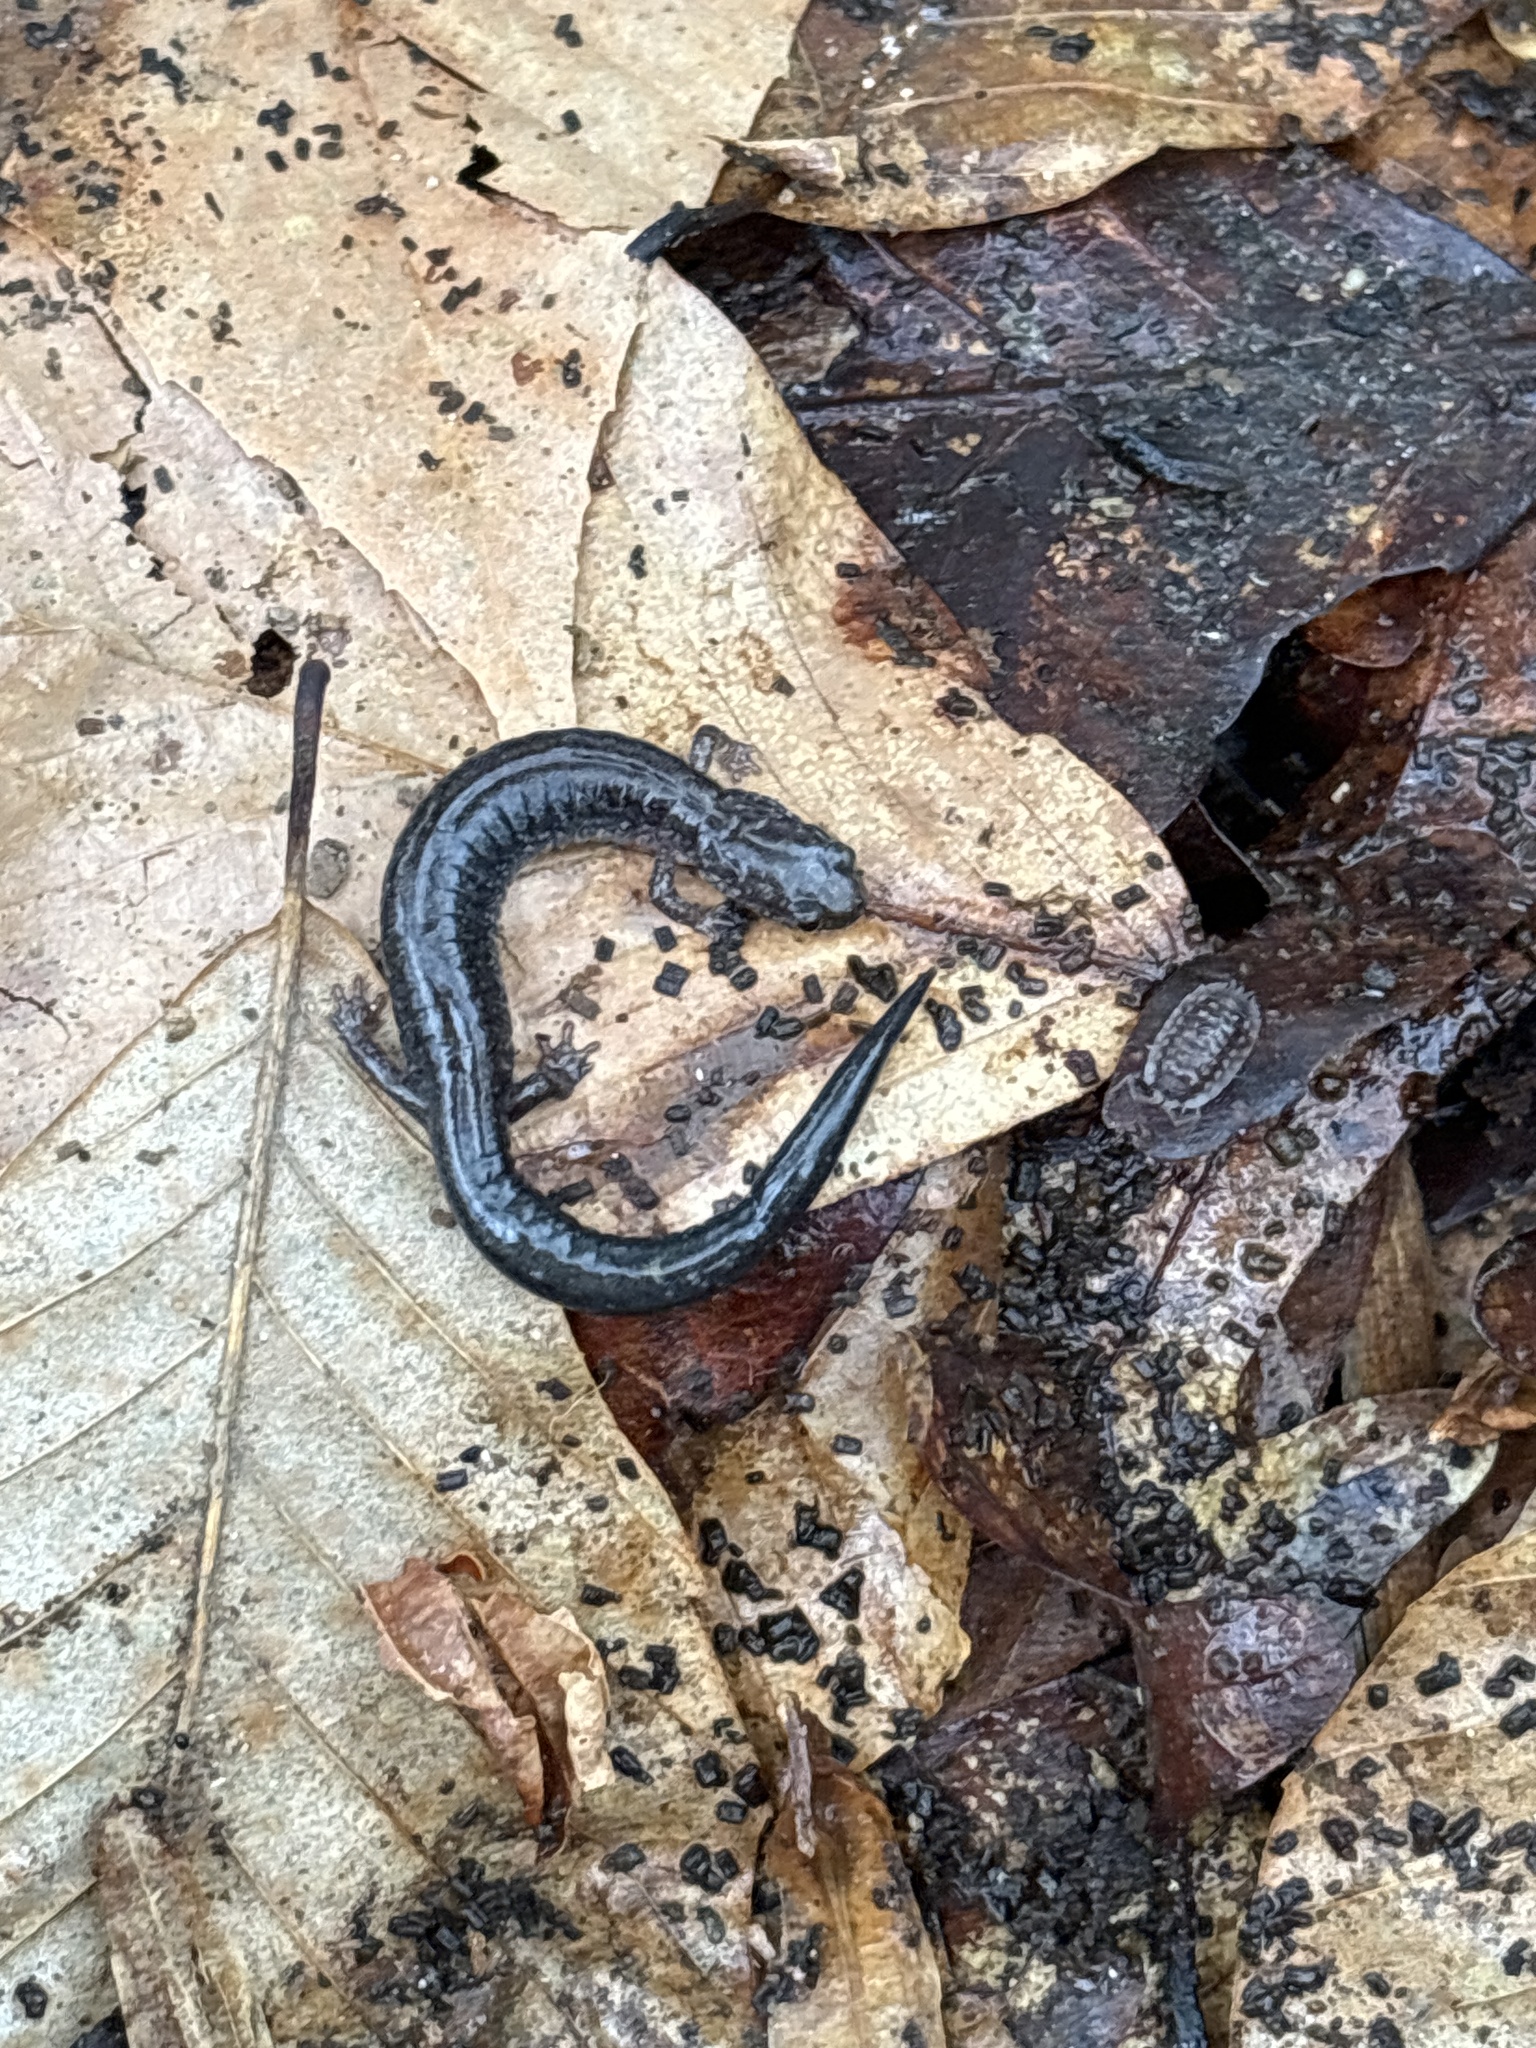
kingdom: Animalia
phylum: Chordata
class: Amphibia
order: Caudata
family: Plethodontidae
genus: Plethodon
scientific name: Plethodon cinereus
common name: Redback salamander
